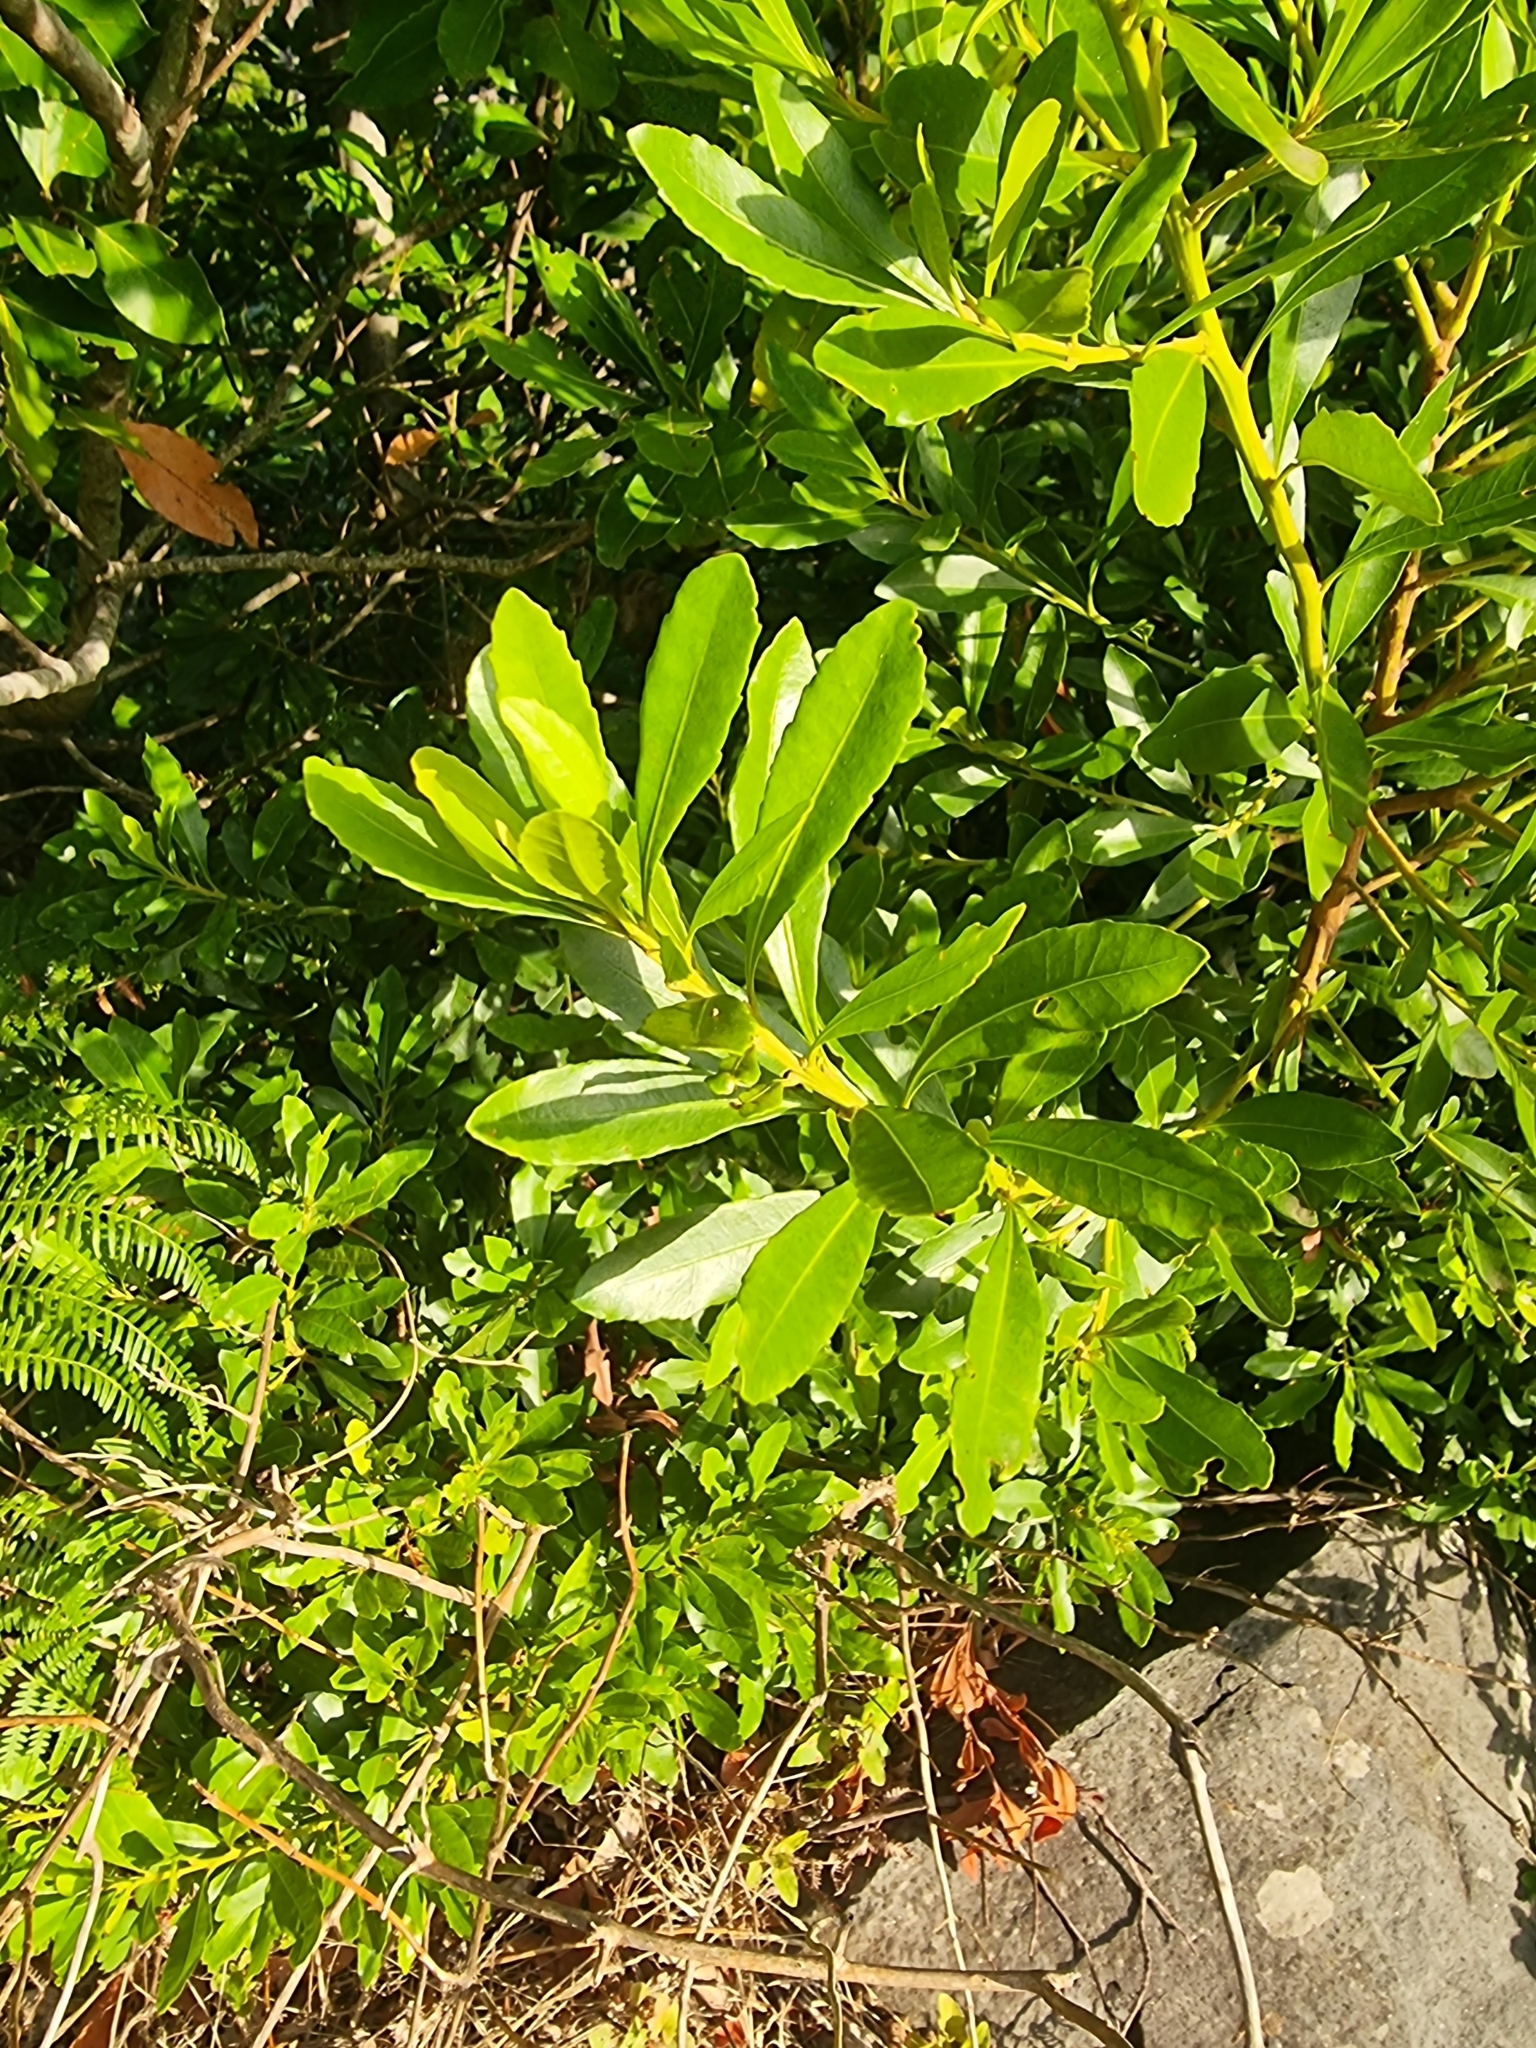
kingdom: Plantae
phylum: Tracheophyta
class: Magnoliopsida
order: Fagales
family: Myricaceae
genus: Morella
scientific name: Morella faya
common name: Firetree
